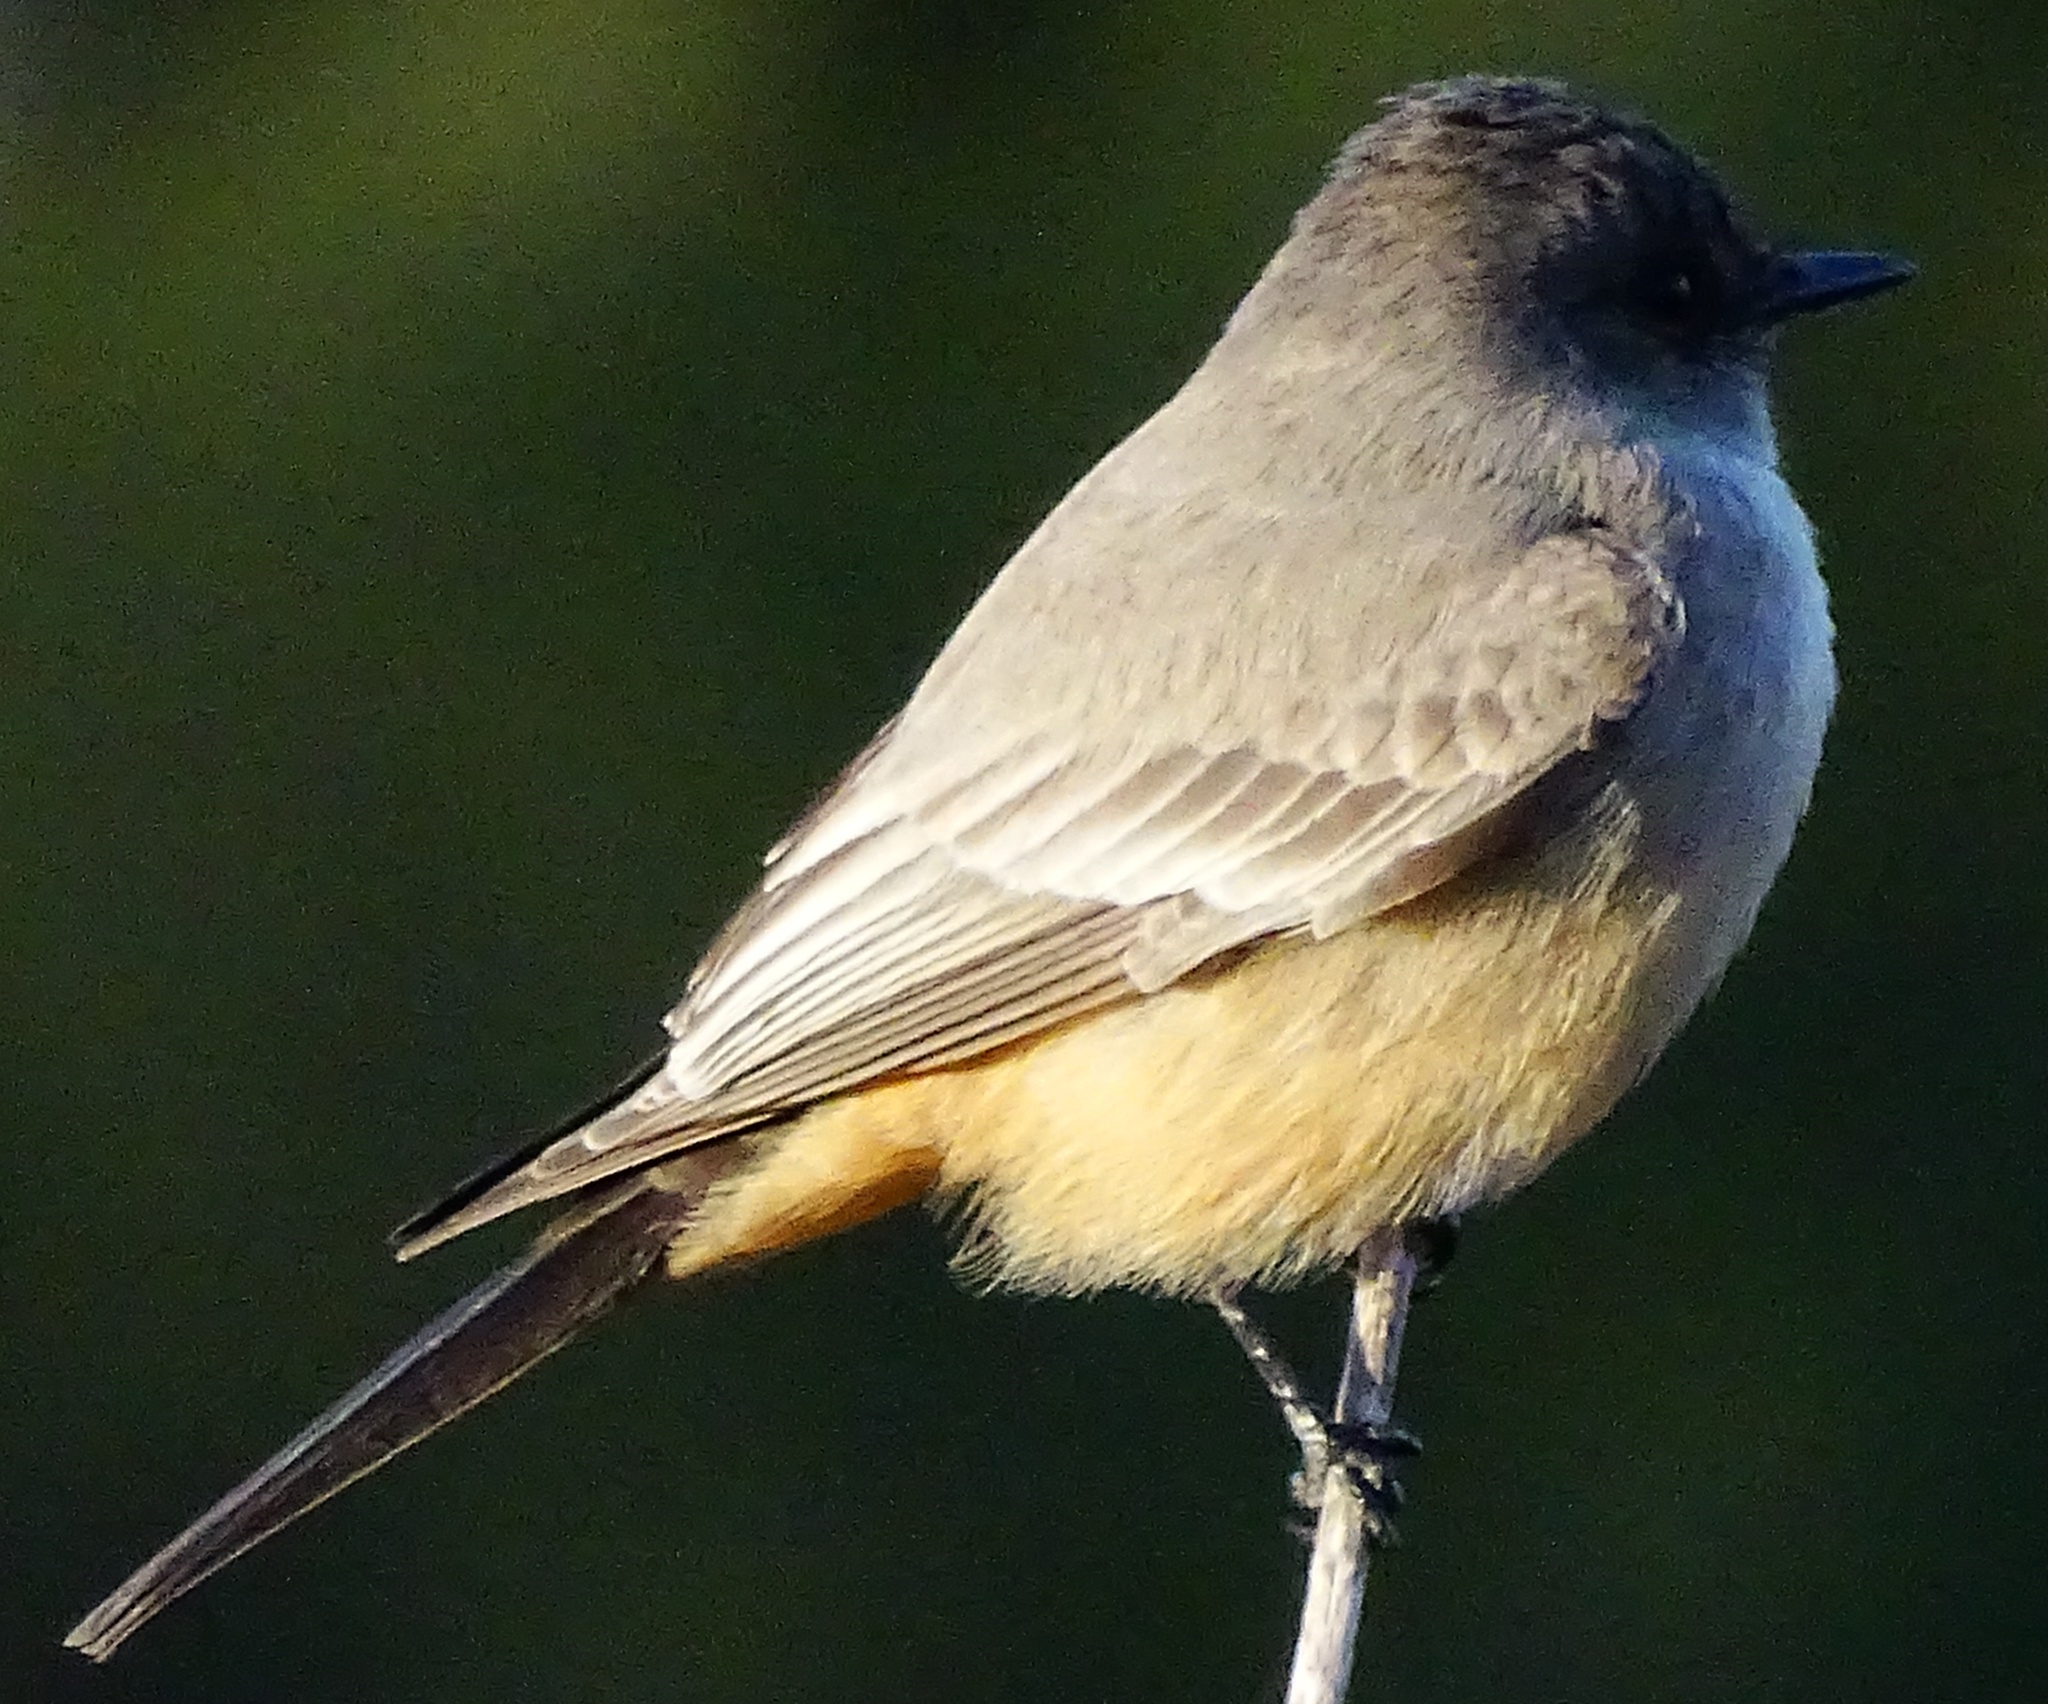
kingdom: Animalia
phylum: Chordata
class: Aves
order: Passeriformes
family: Tyrannidae
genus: Sayornis
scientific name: Sayornis saya
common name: Say's phoebe
